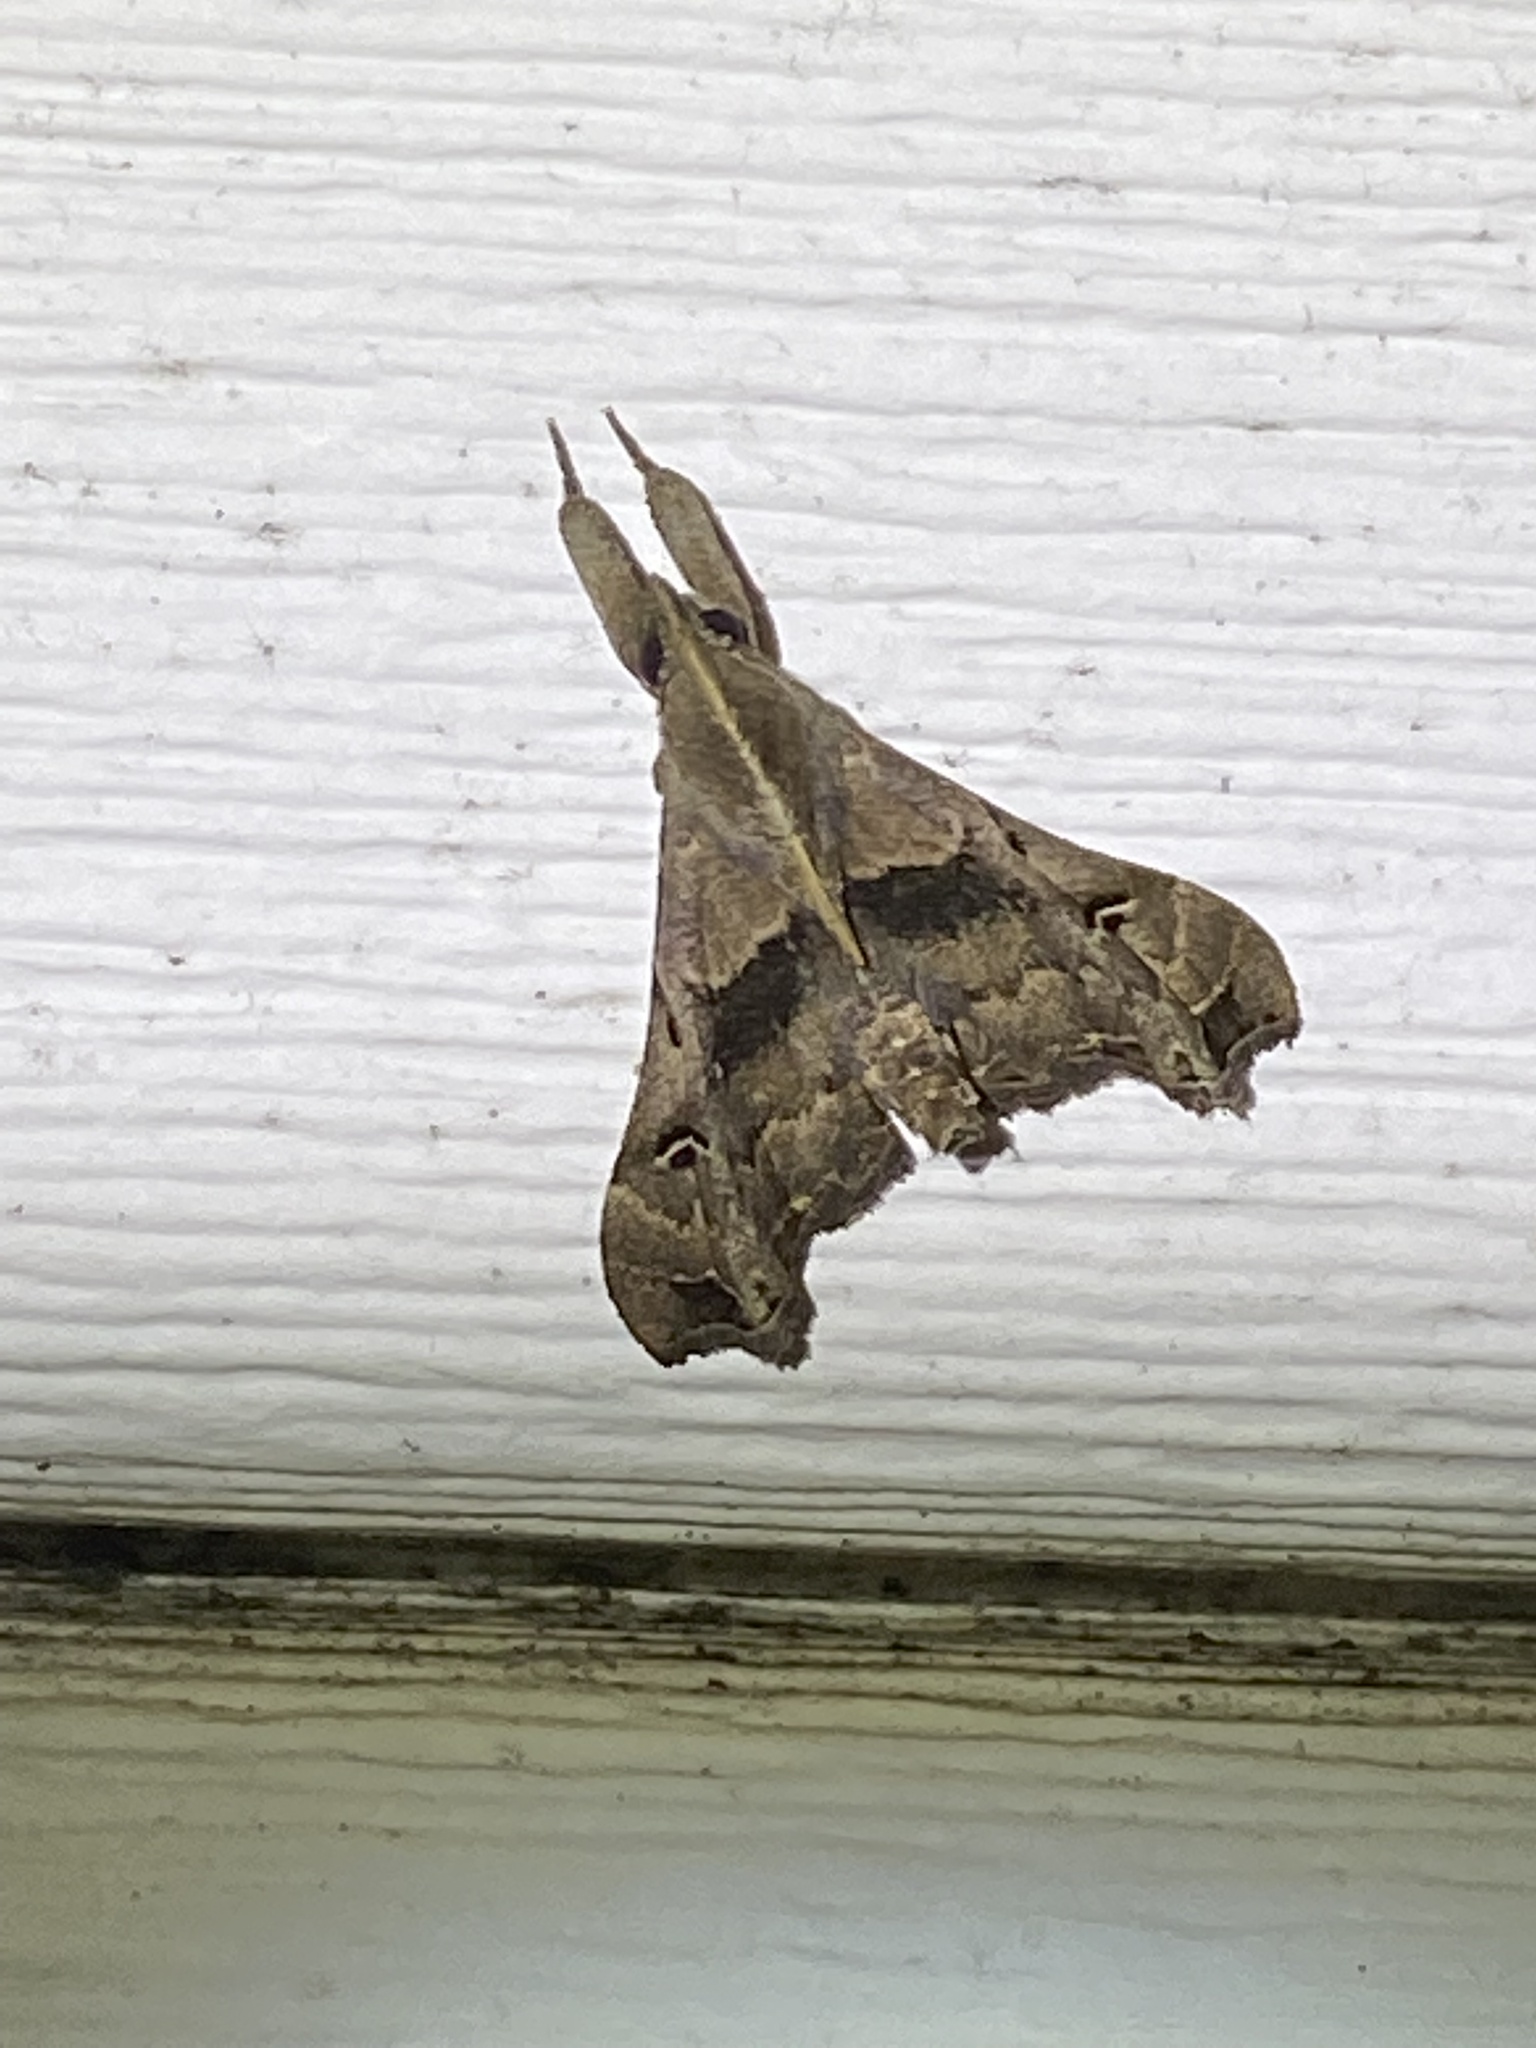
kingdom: Animalia
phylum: Arthropoda
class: Insecta
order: Lepidoptera
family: Erebidae
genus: Palthis
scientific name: Palthis asopialis
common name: Faint-spotted palthis moth
